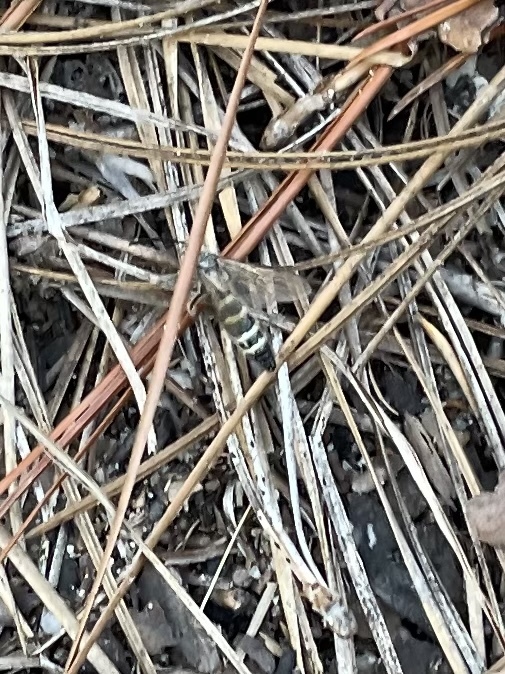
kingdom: Animalia
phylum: Arthropoda
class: Insecta
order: Hymenoptera
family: Scoliidae
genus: Dielis
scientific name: Dielis
